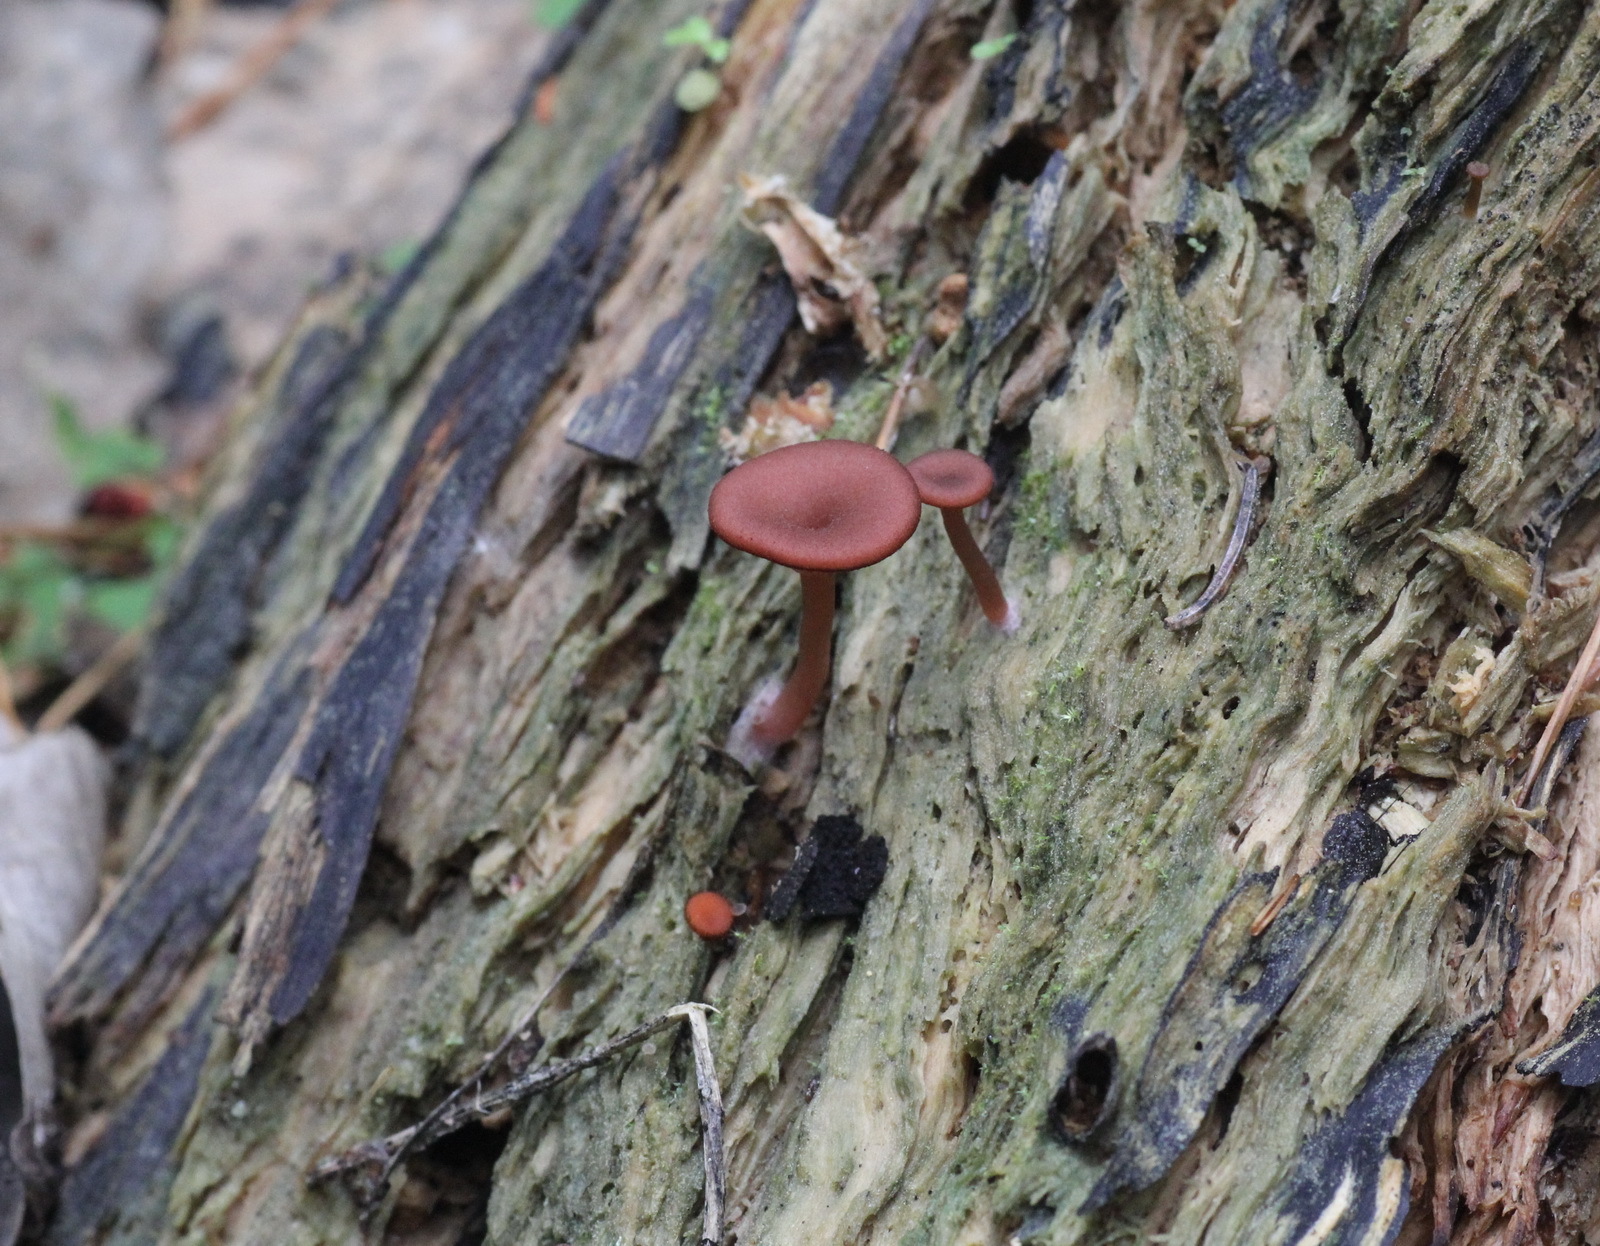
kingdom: Fungi
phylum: Basidiomycota
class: Agaricomycetes
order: Agaricales
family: Hygrophoraceae
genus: Arrhenia
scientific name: Arrhenia discorosea
